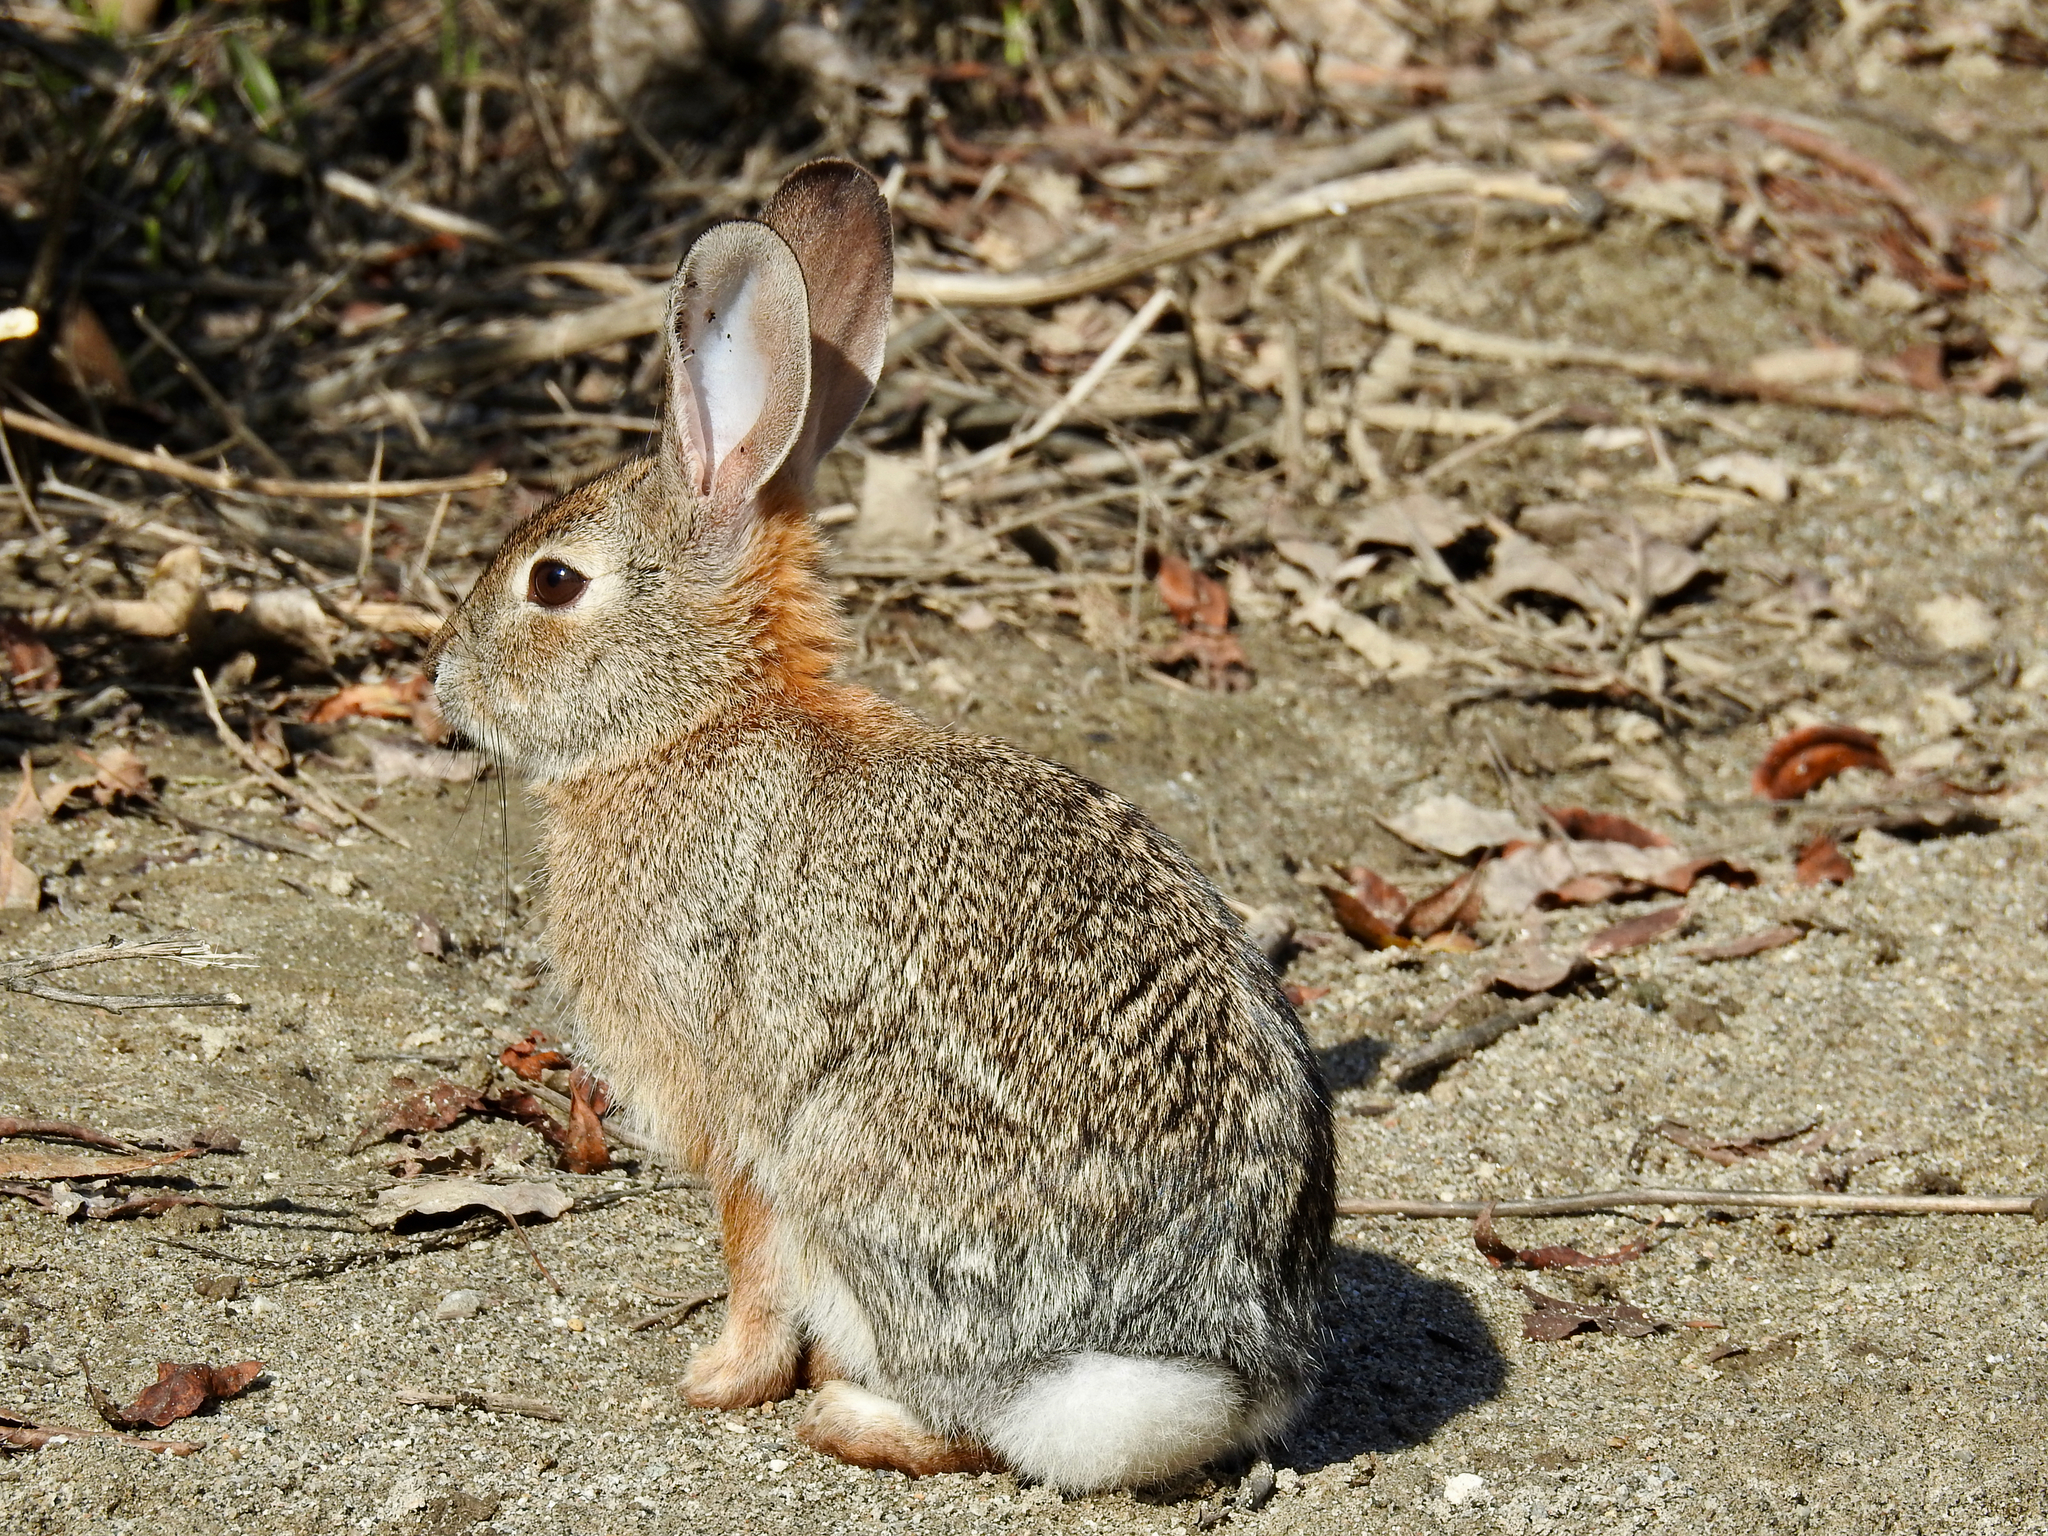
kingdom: Animalia
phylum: Chordata
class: Mammalia
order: Lagomorpha
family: Leporidae
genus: Sylvilagus
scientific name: Sylvilagus audubonii
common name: Desert cottontail
